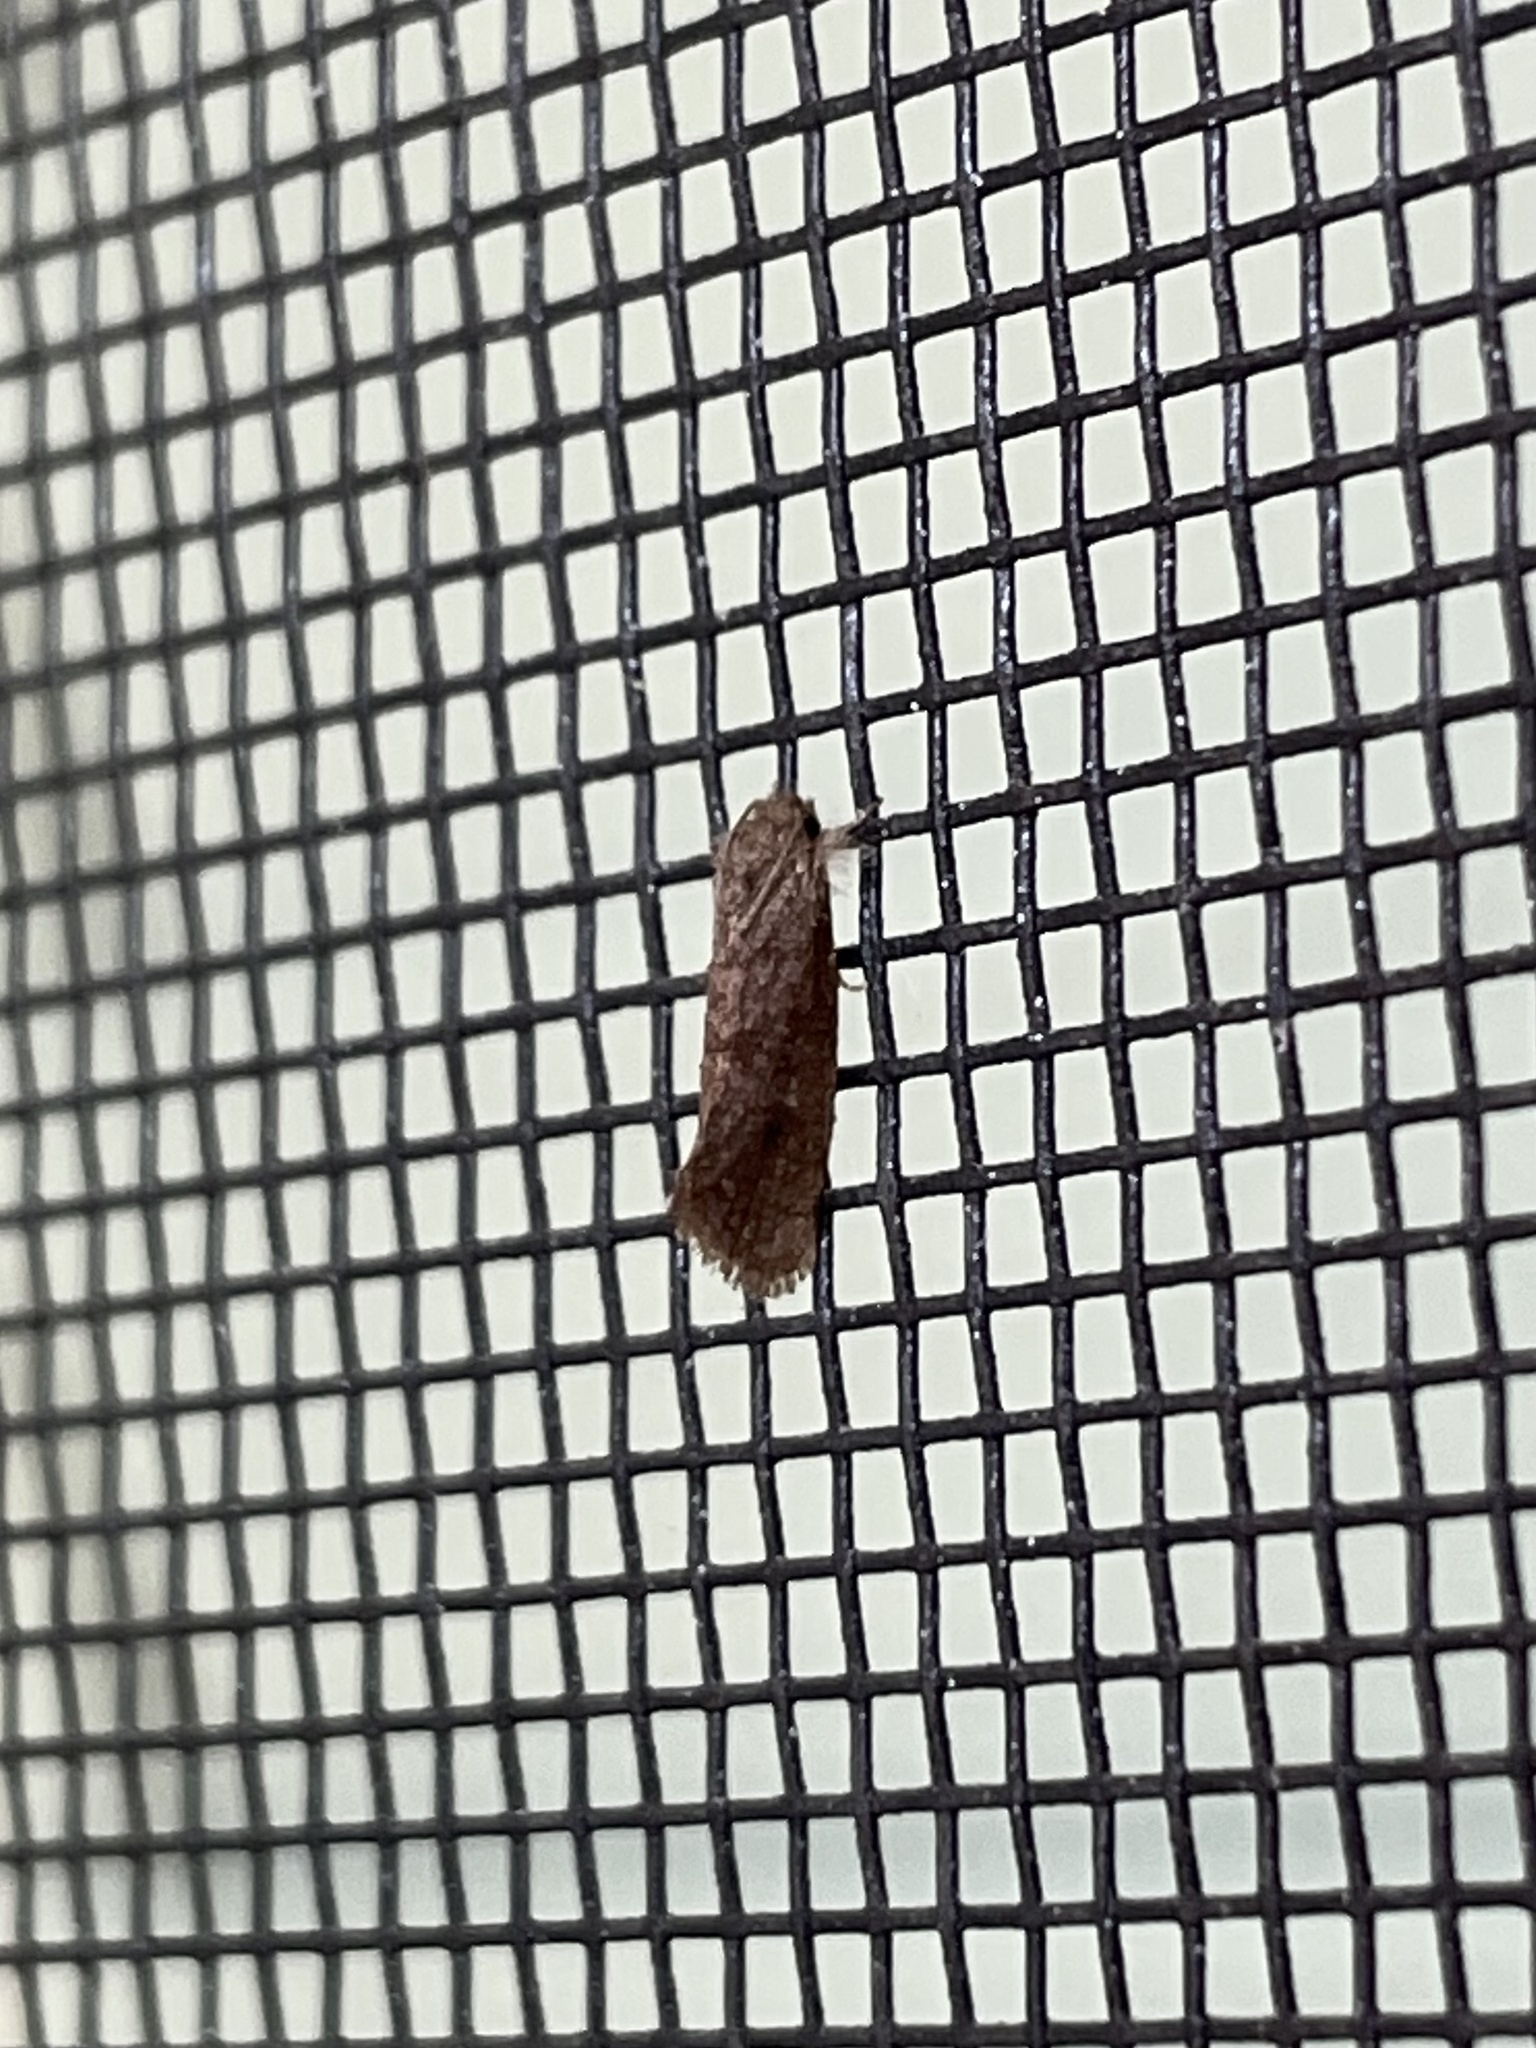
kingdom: Animalia
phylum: Arthropoda
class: Insecta
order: Lepidoptera
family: Tineidae
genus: Acrolophus
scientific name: Acrolophus heppneri
